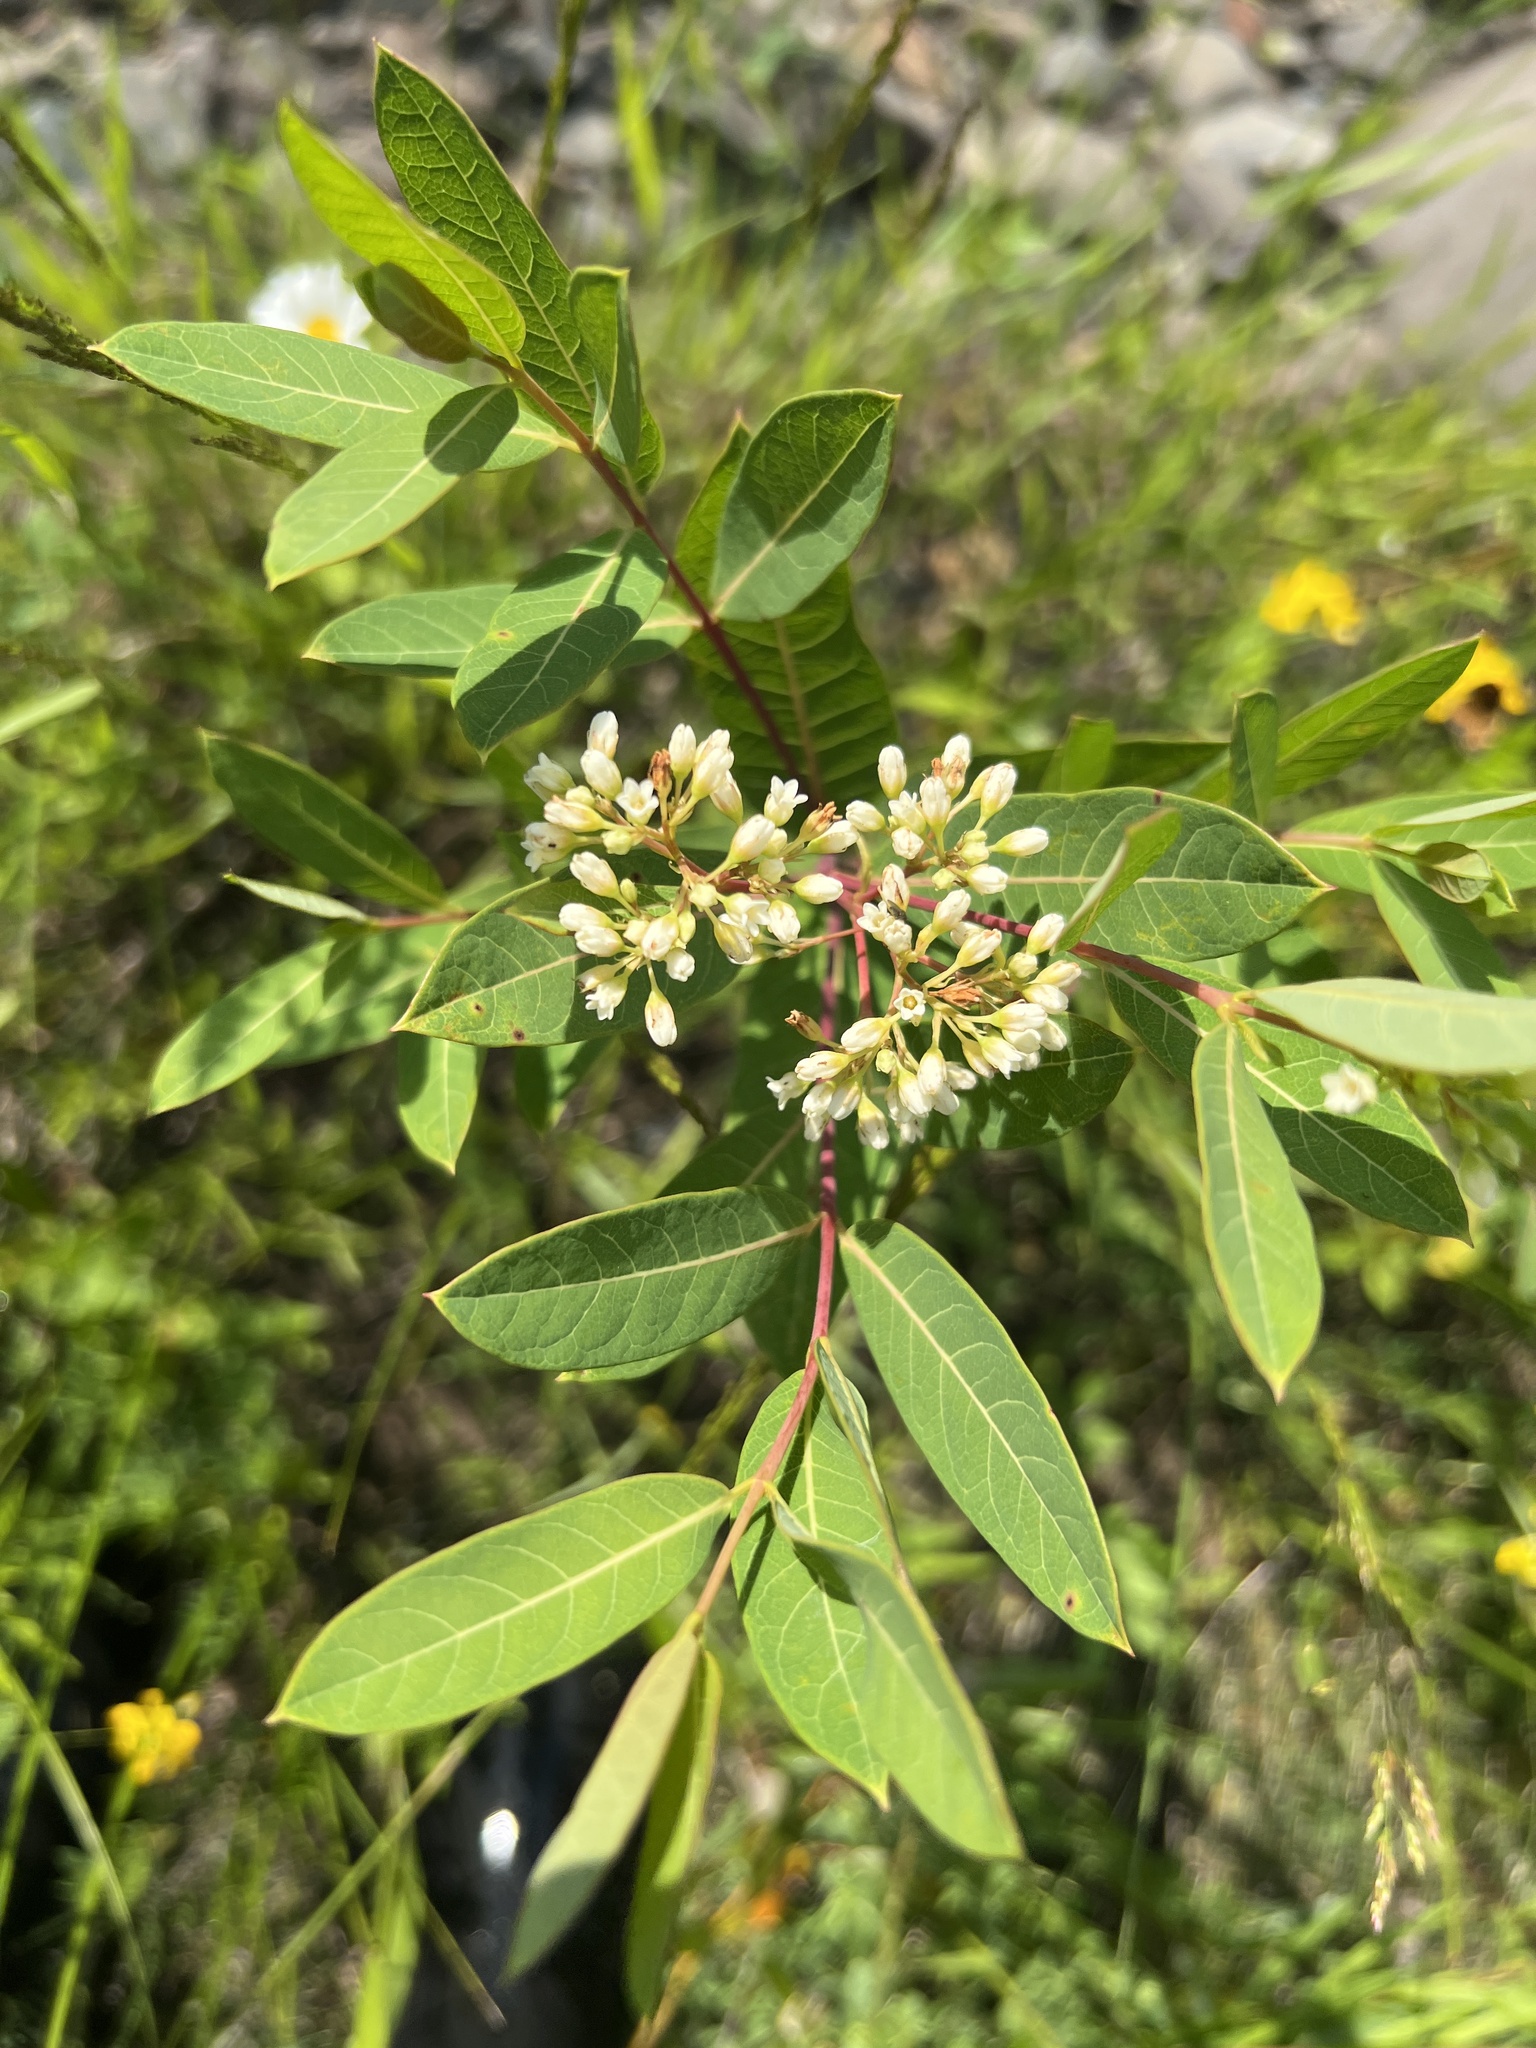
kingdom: Plantae
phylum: Tracheophyta
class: Magnoliopsida
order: Gentianales
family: Apocynaceae
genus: Apocynum
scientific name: Apocynum cannabinum
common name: Hemp dogbane
